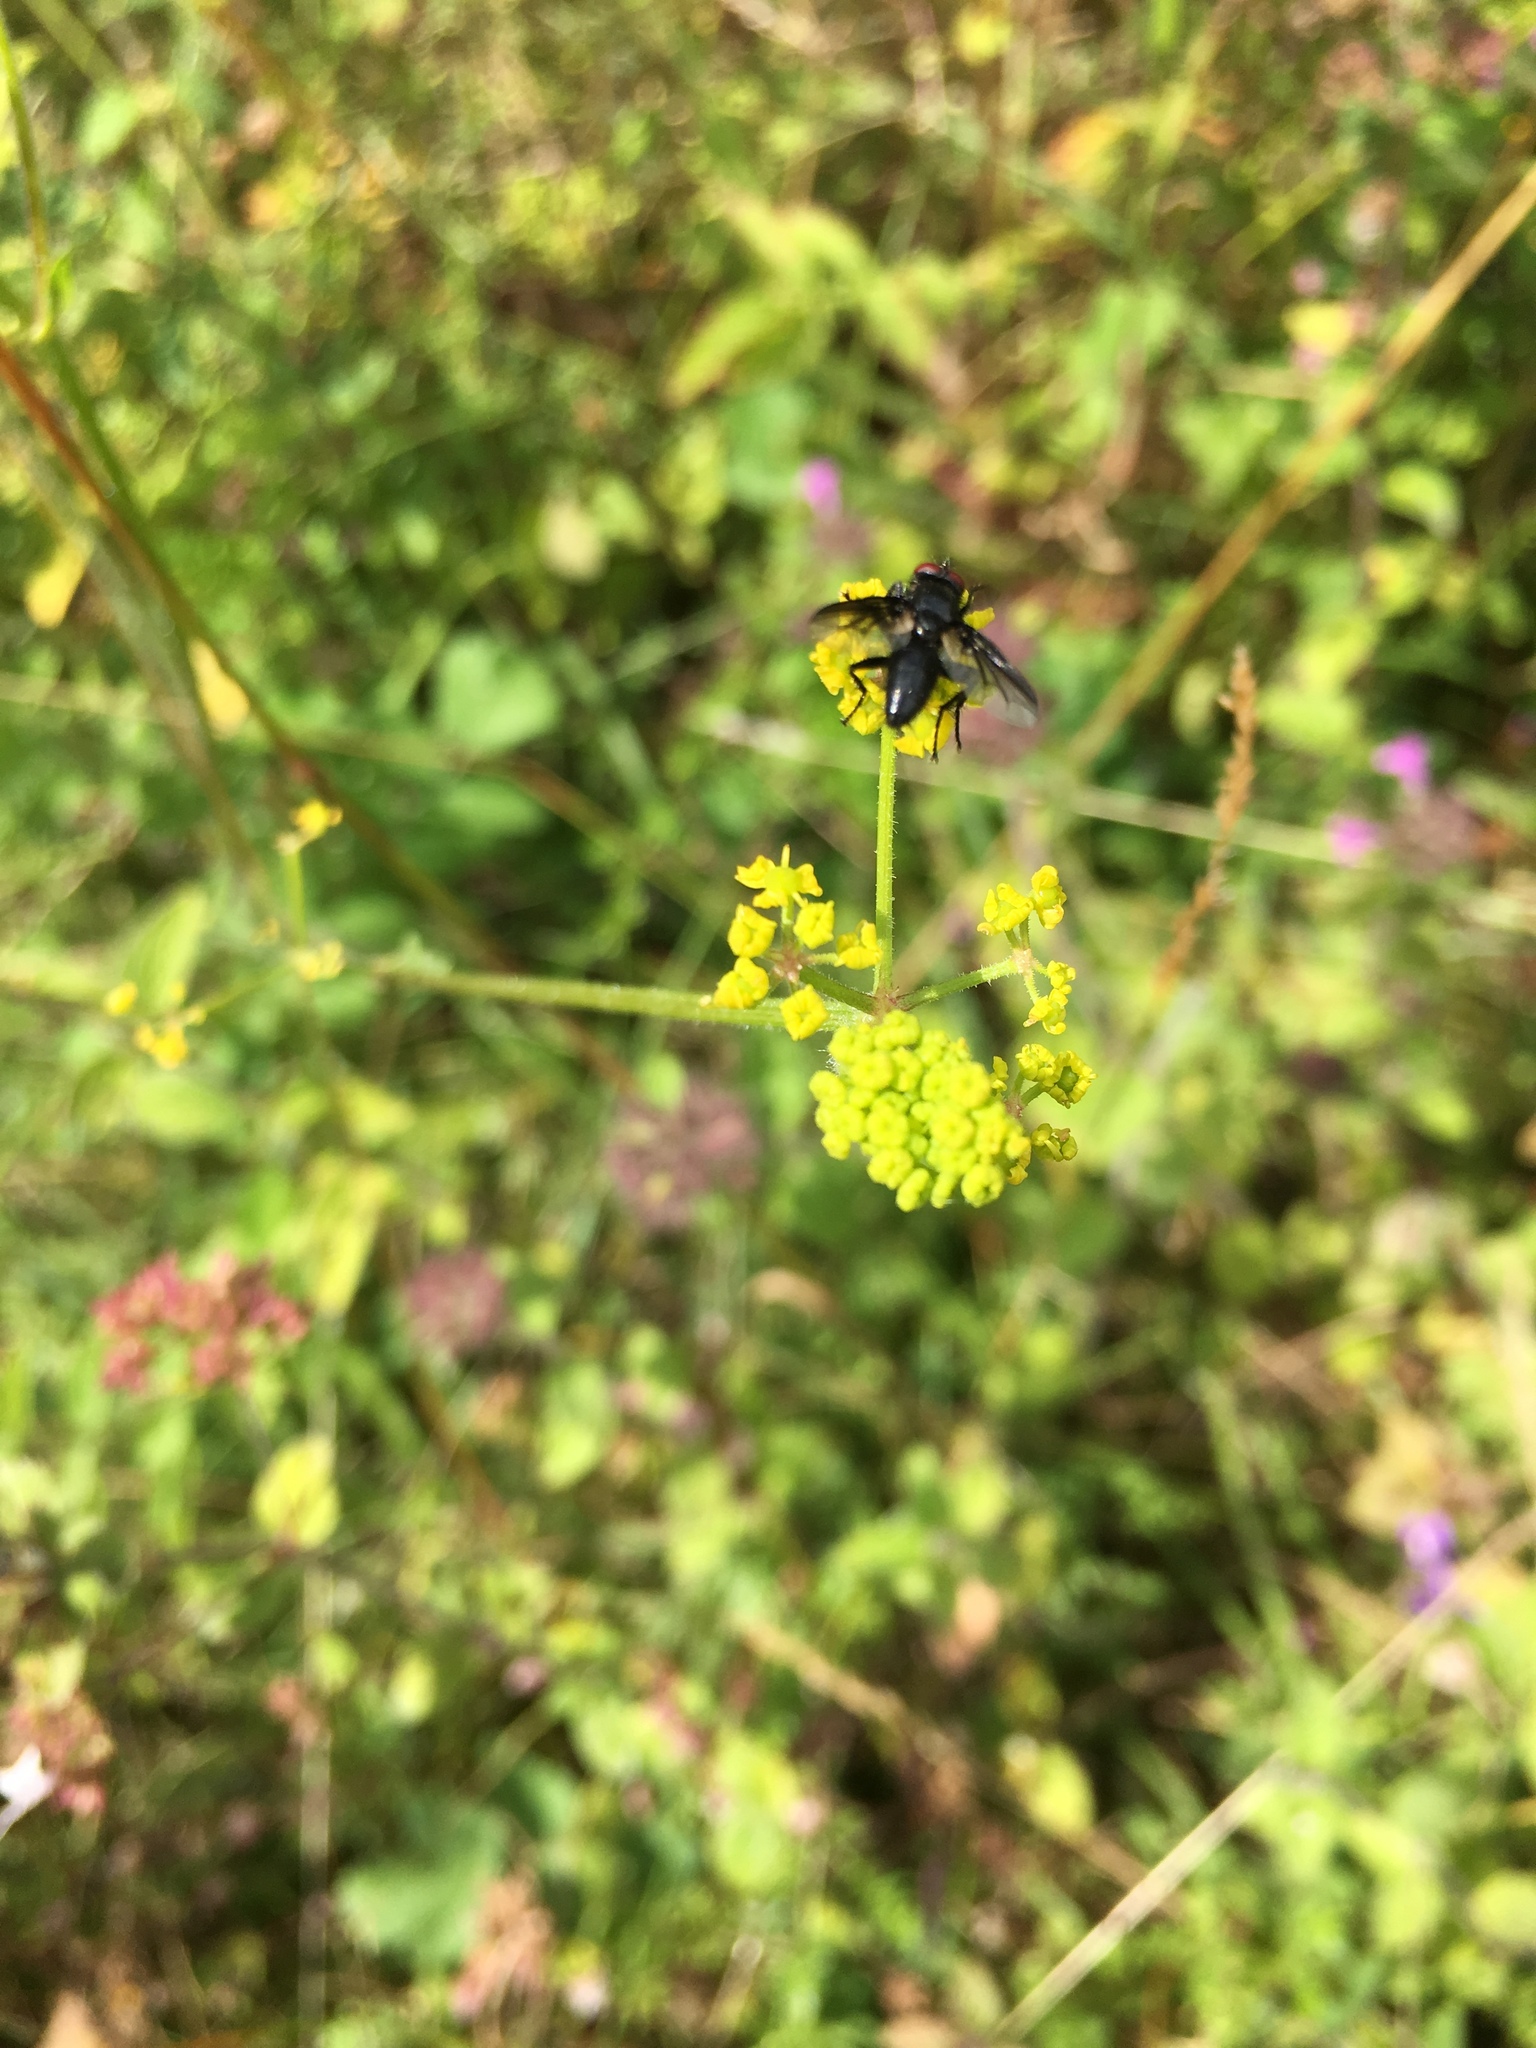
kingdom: Animalia
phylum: Arthropoda
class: Insecta
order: Diptera
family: Sarcophagidae
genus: Nyctia
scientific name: Nyctia halterata
